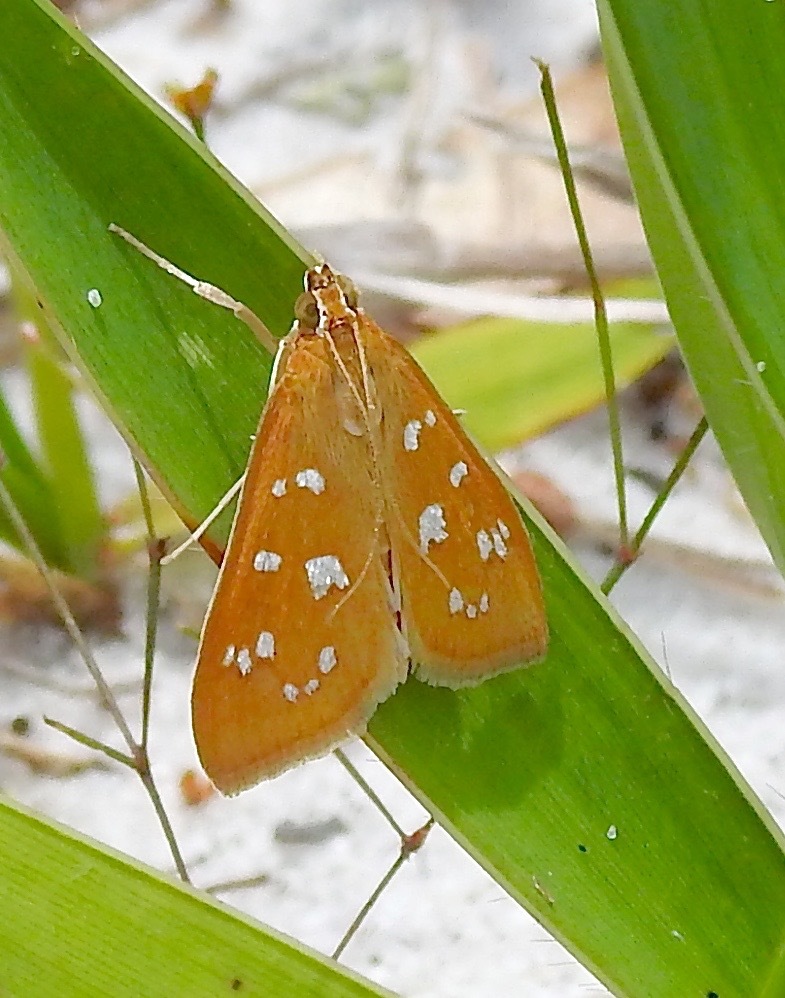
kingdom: Animalia
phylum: Arthropoda
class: Insecta
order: Lepidoptera
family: Crambidae
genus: Diastictis
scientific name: Diastictis argyralis
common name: White-spotted orange
